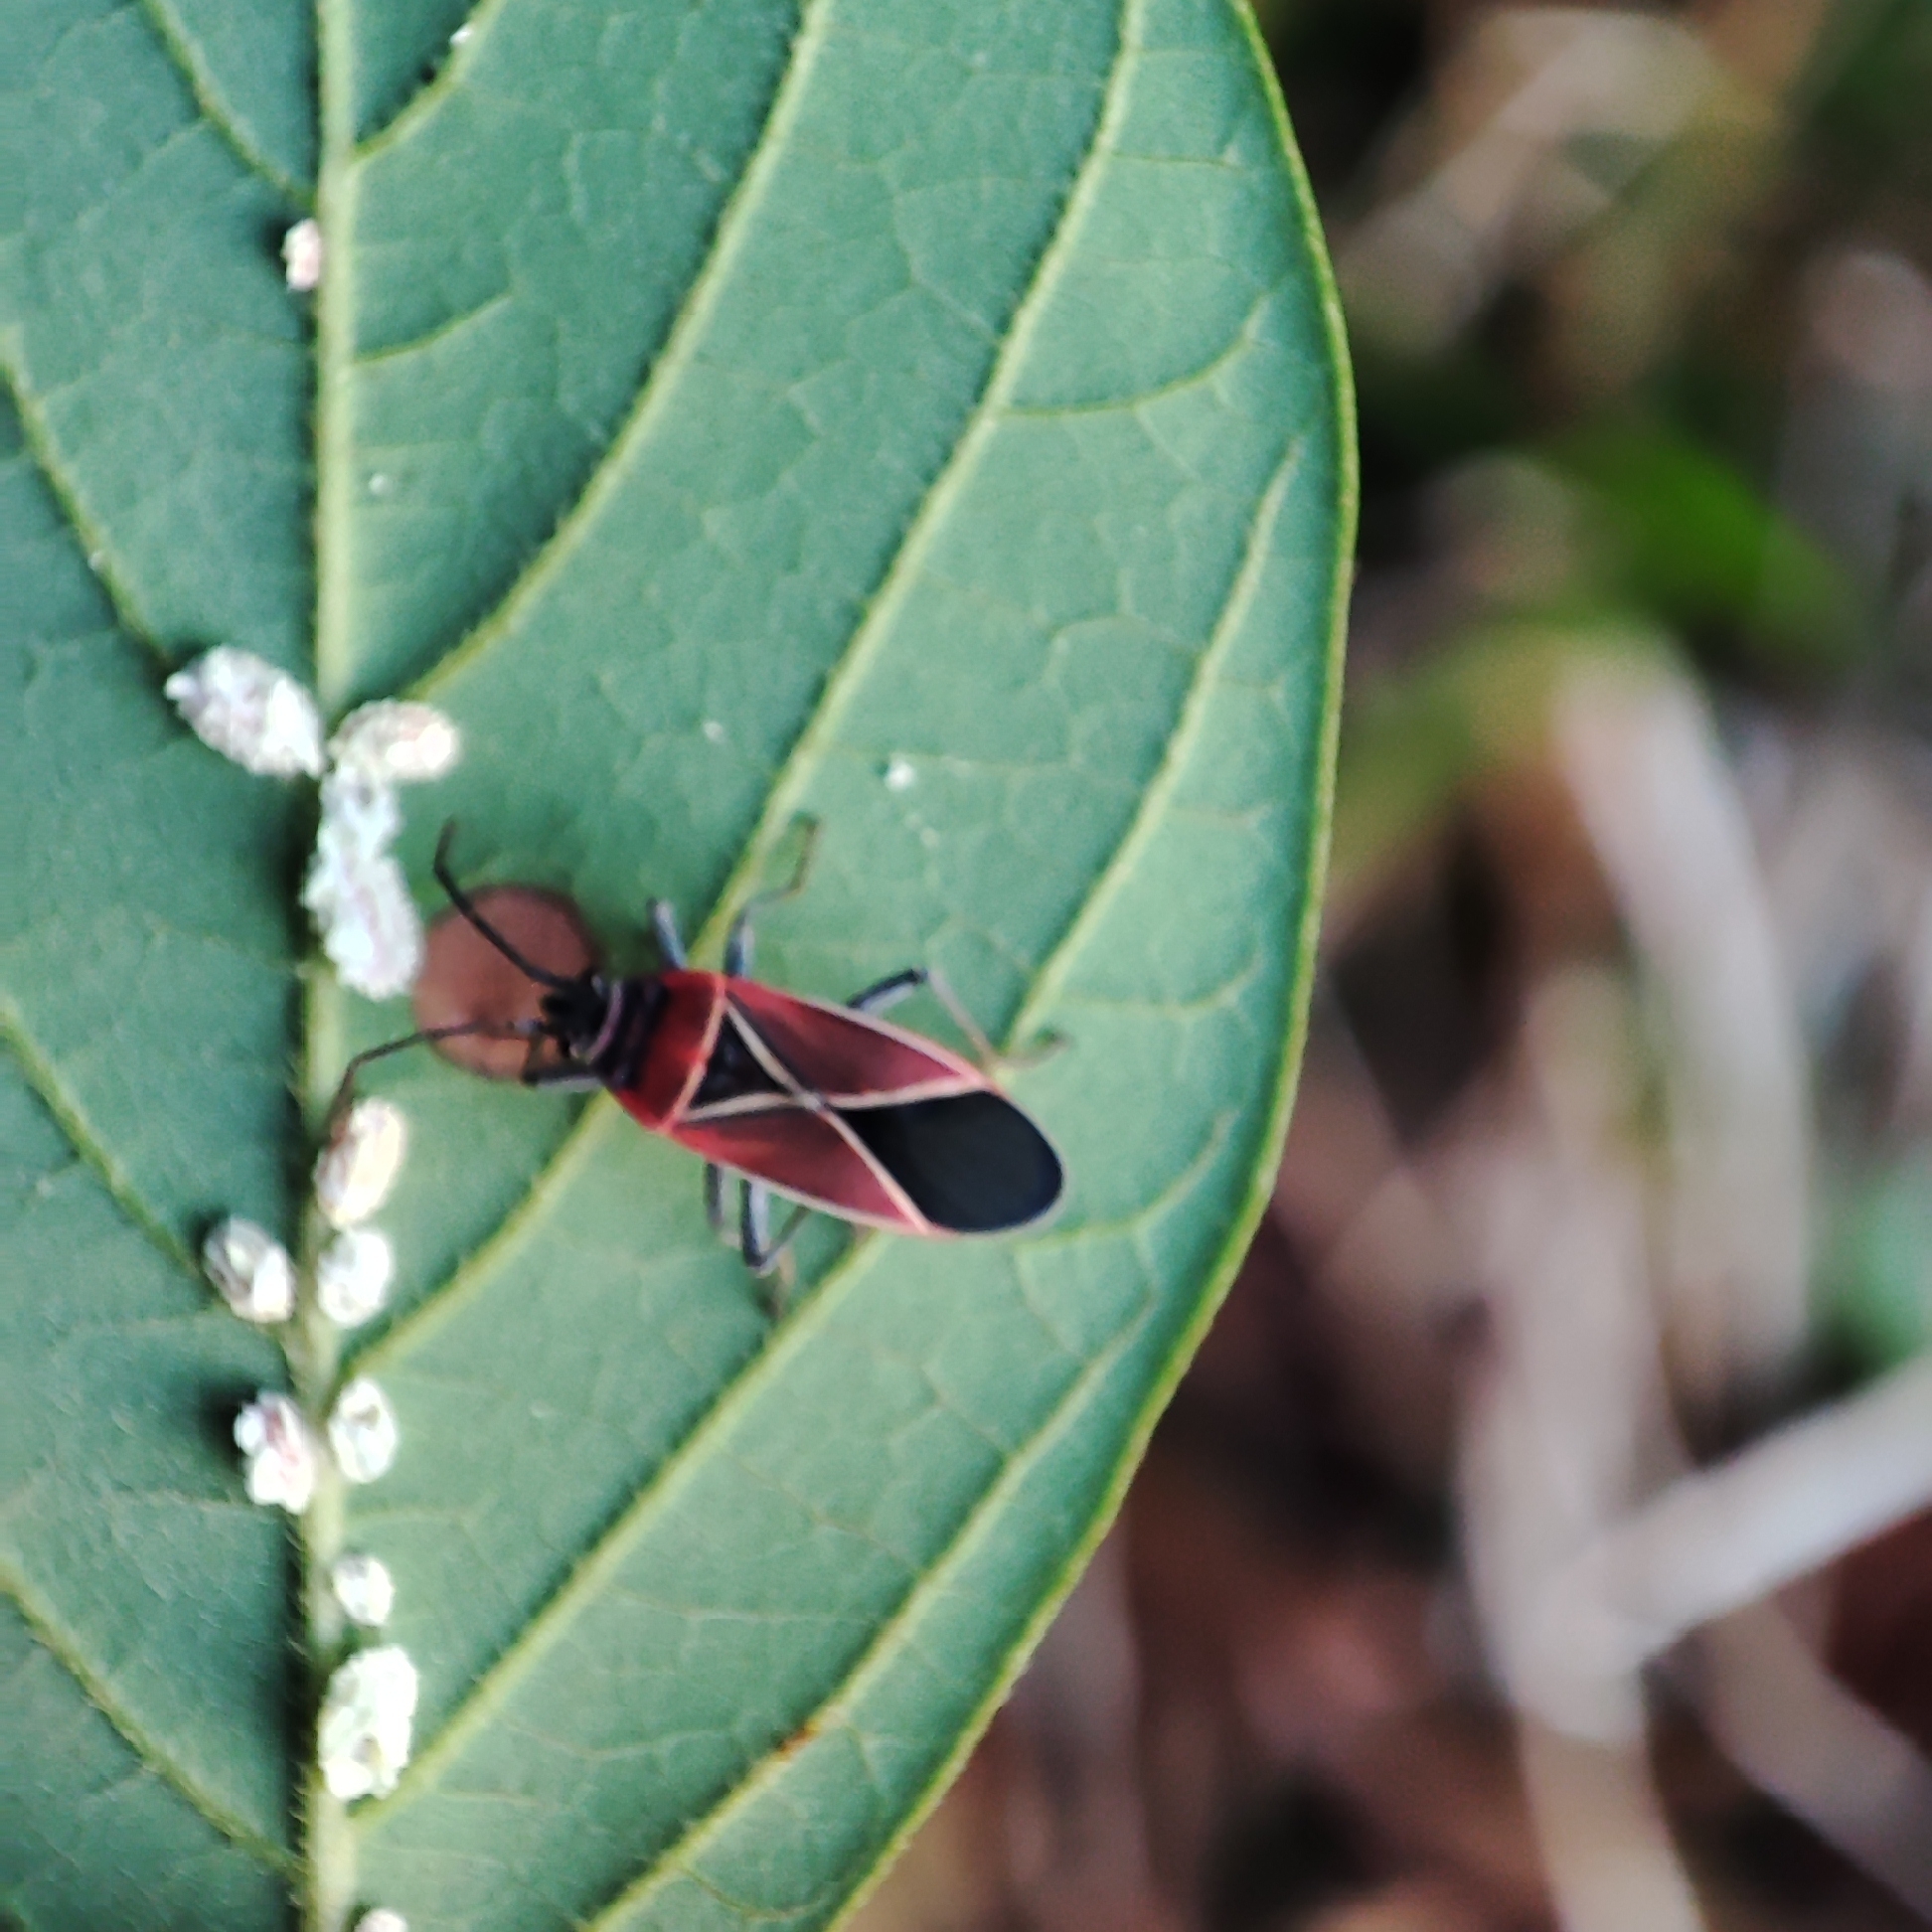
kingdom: Animalia
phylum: Arthropoda
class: Insecta
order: Hemiptera
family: Lygaeidae
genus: Neacoryphus
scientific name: Neacoryphus bicrucis
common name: Lygaeid bug
